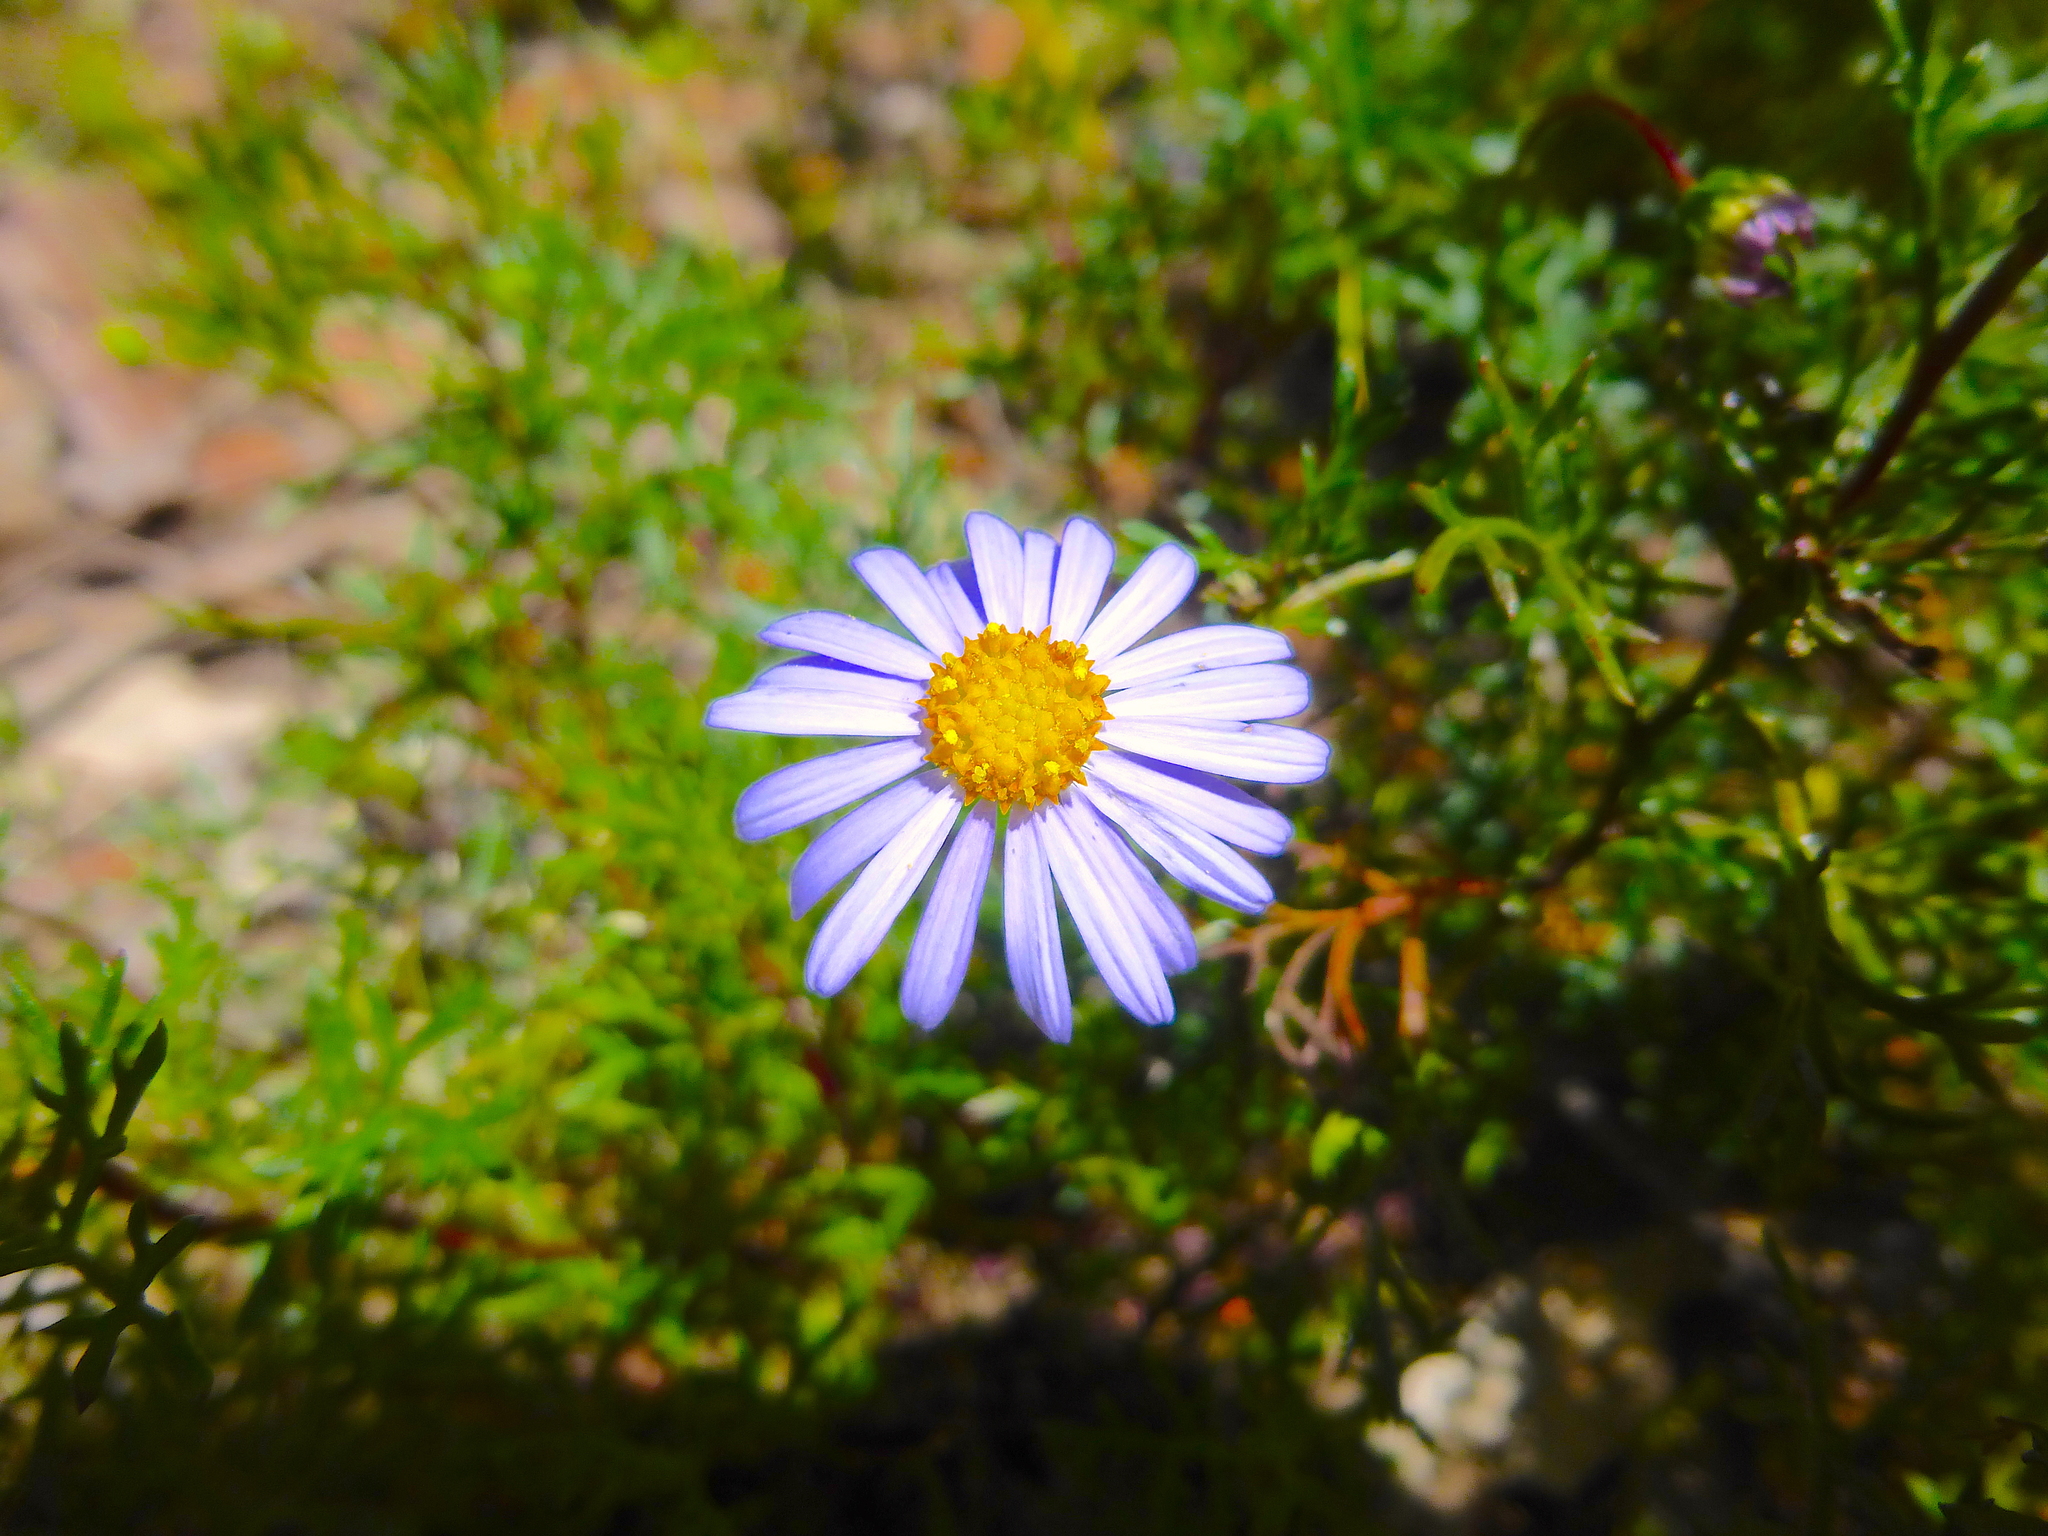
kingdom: Plantae
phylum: Tracheophyta
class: Magnoliopsida
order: Asterales
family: Asteraceae
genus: Brachyscome
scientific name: Brachyscome multifida
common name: Cut-leaf daisy
